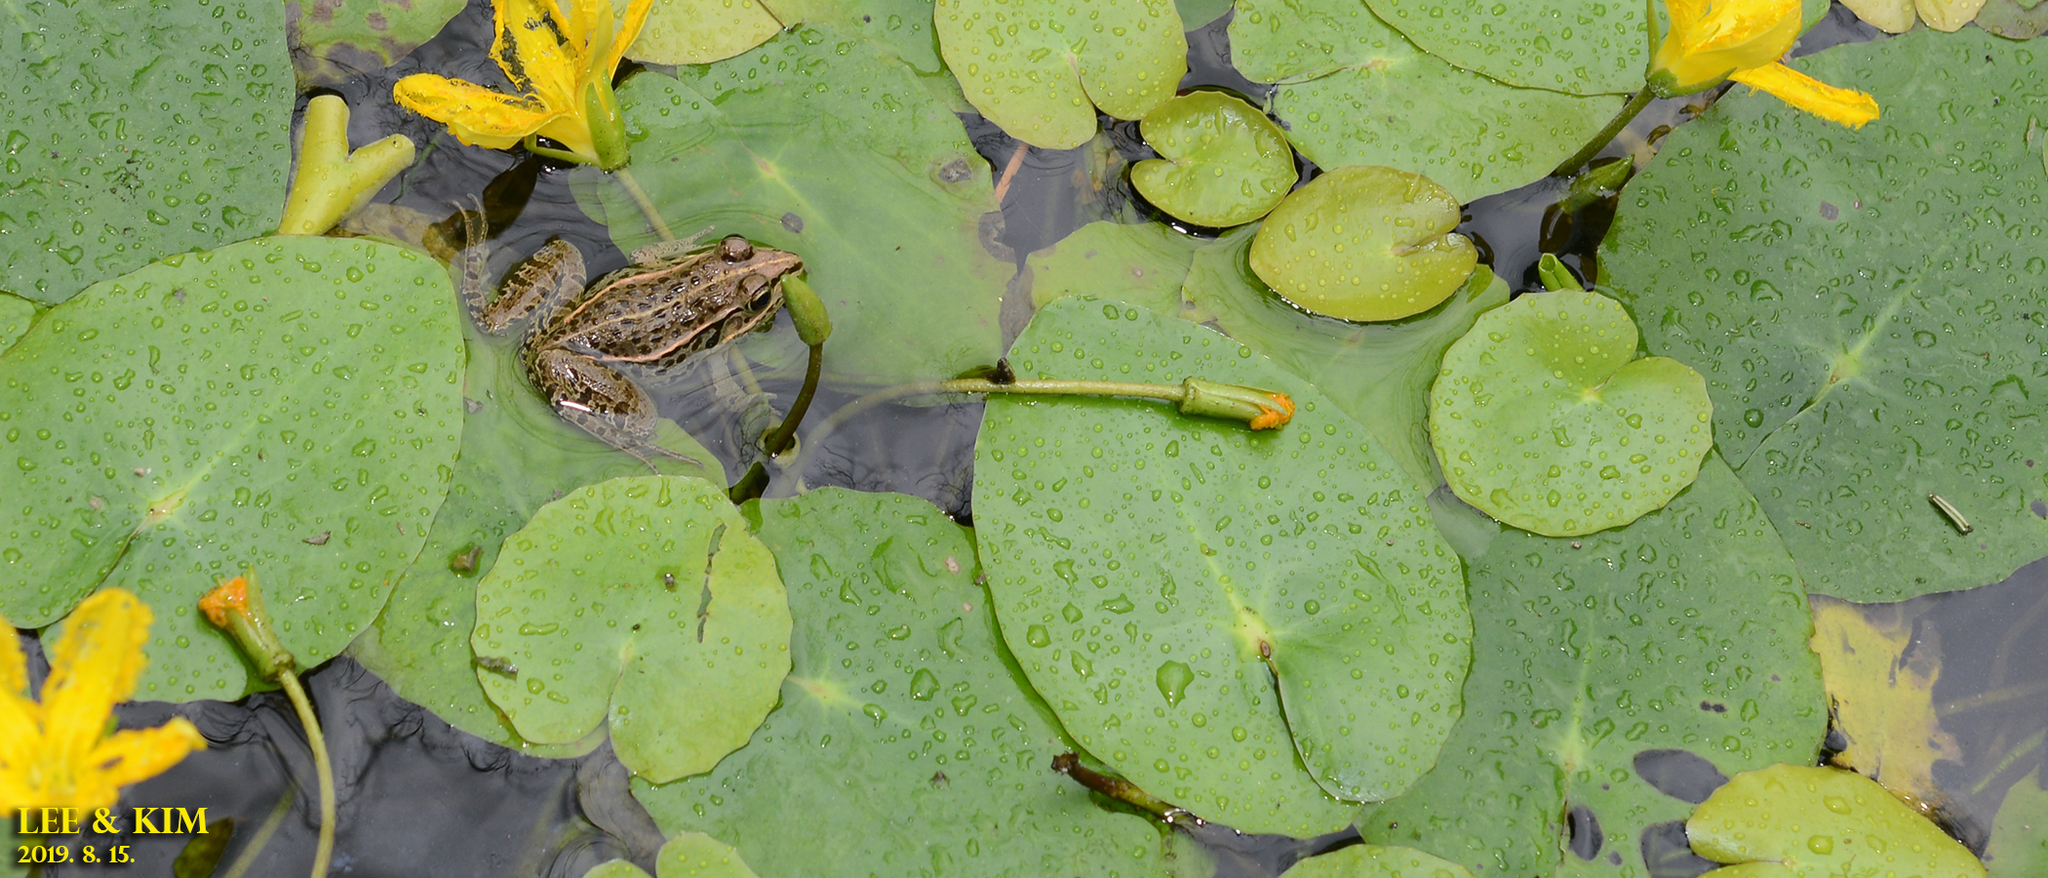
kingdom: Animalia
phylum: Chordata
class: Amphibia
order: Anura
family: Ranidae
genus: Pelophylax
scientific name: Pelophylax nigromaculatus
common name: Black-spotted pond frog
